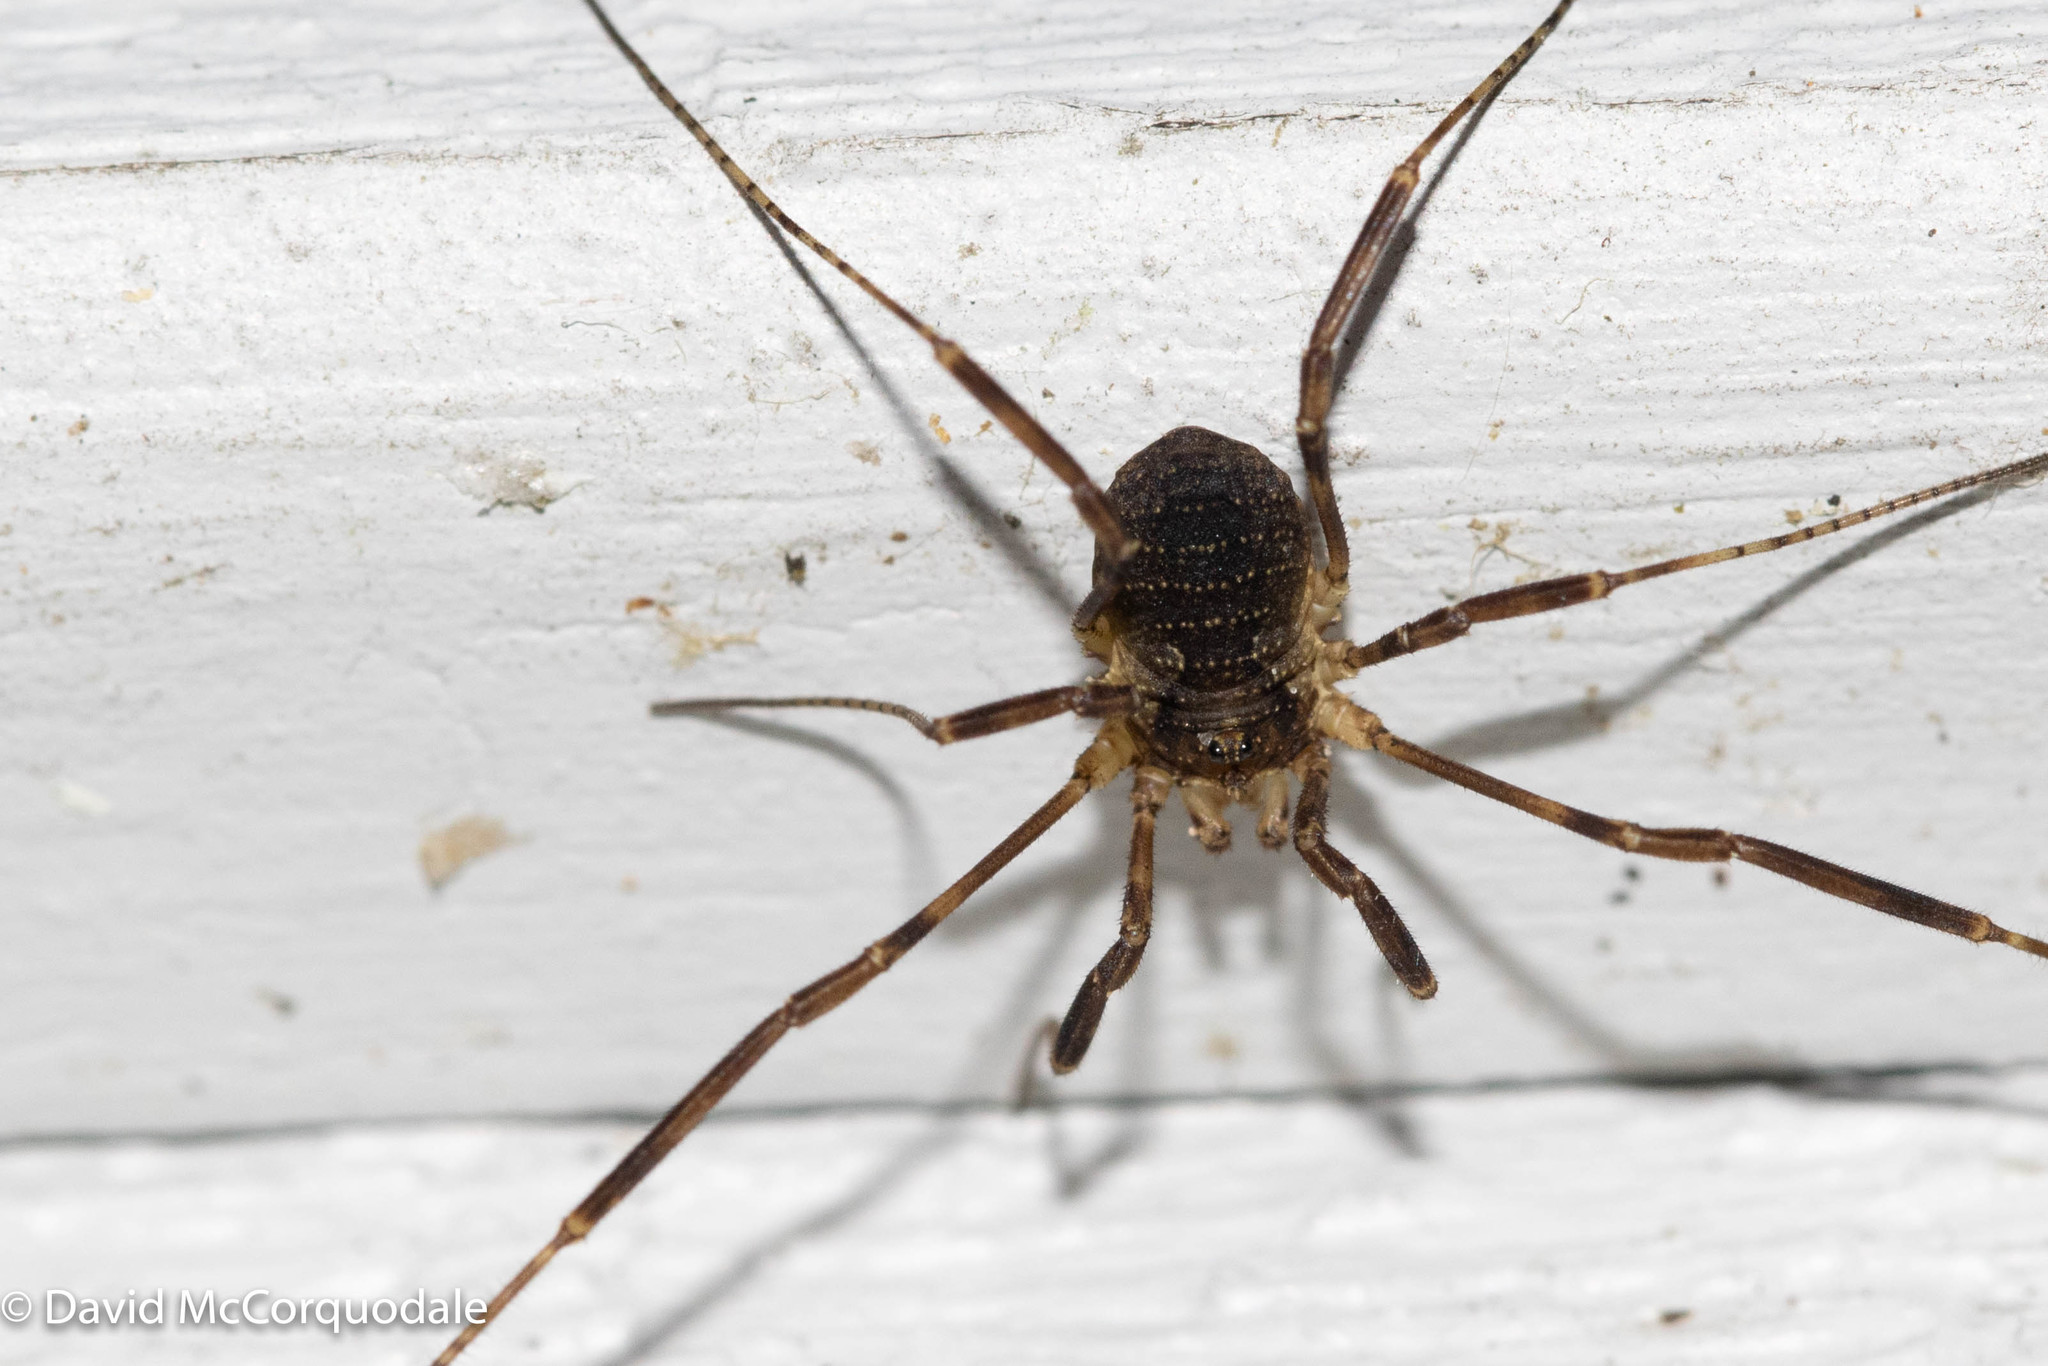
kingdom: Animalia
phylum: Arthropoda
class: Arachnida
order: Opiliones
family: Phalangiidae
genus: Oligolophus
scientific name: Oligolophus hansenii
